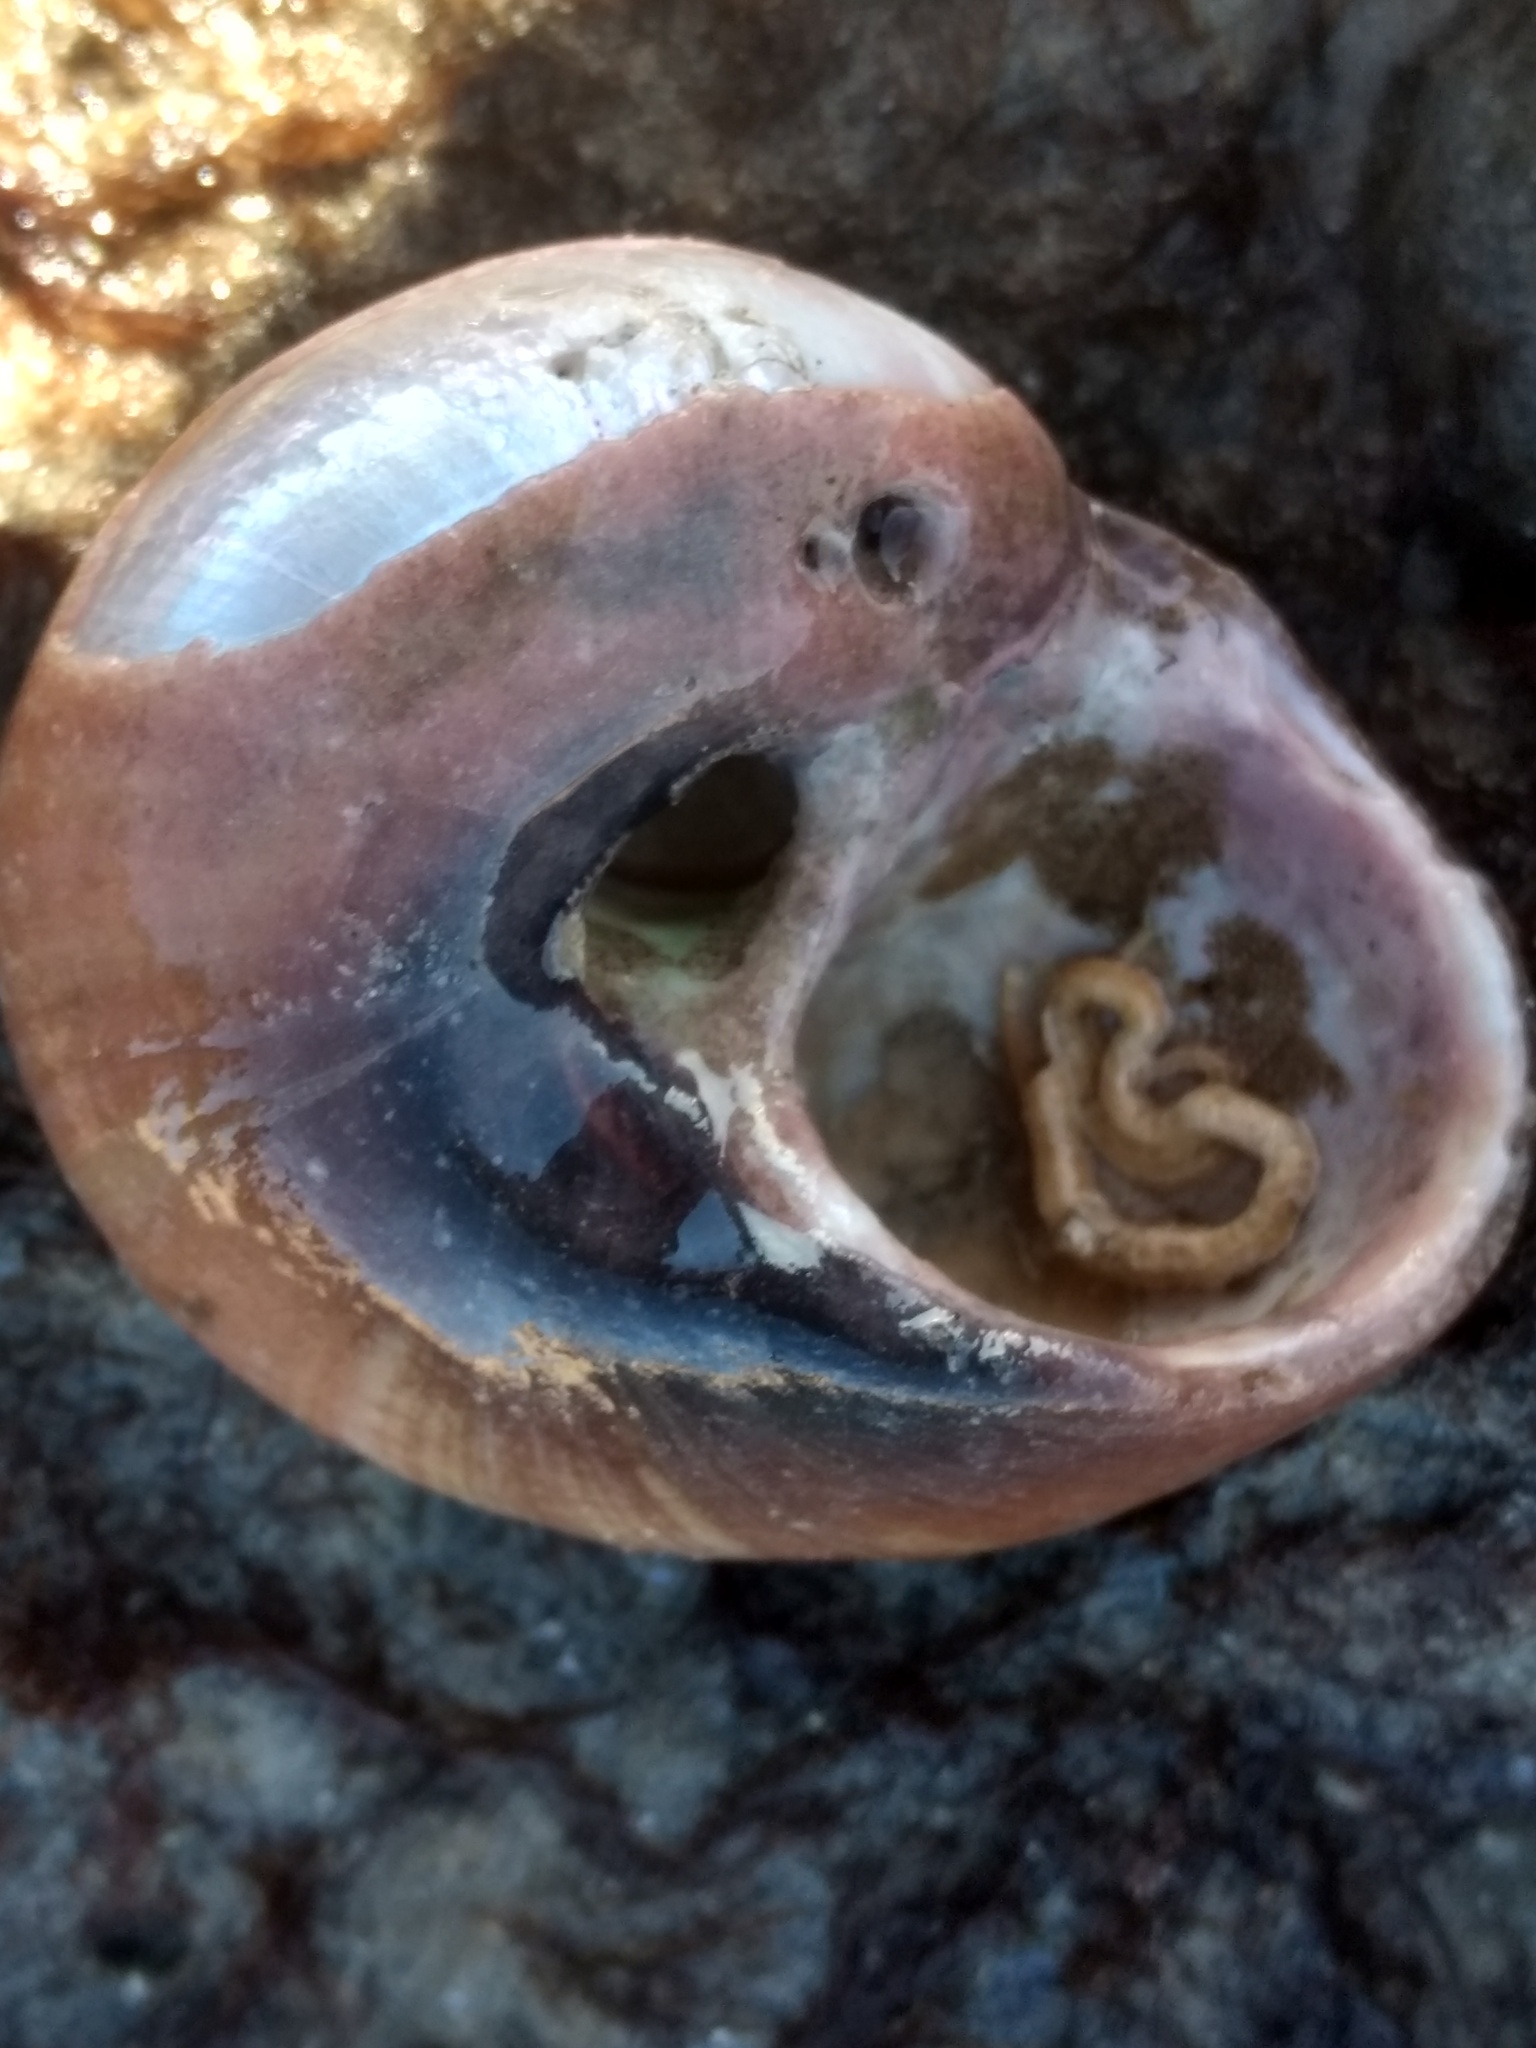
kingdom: Animalia
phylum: Mollusca
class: Gastropoda
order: Trochida
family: Tegulidae
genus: Norrisia
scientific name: Norrisia norrisii
